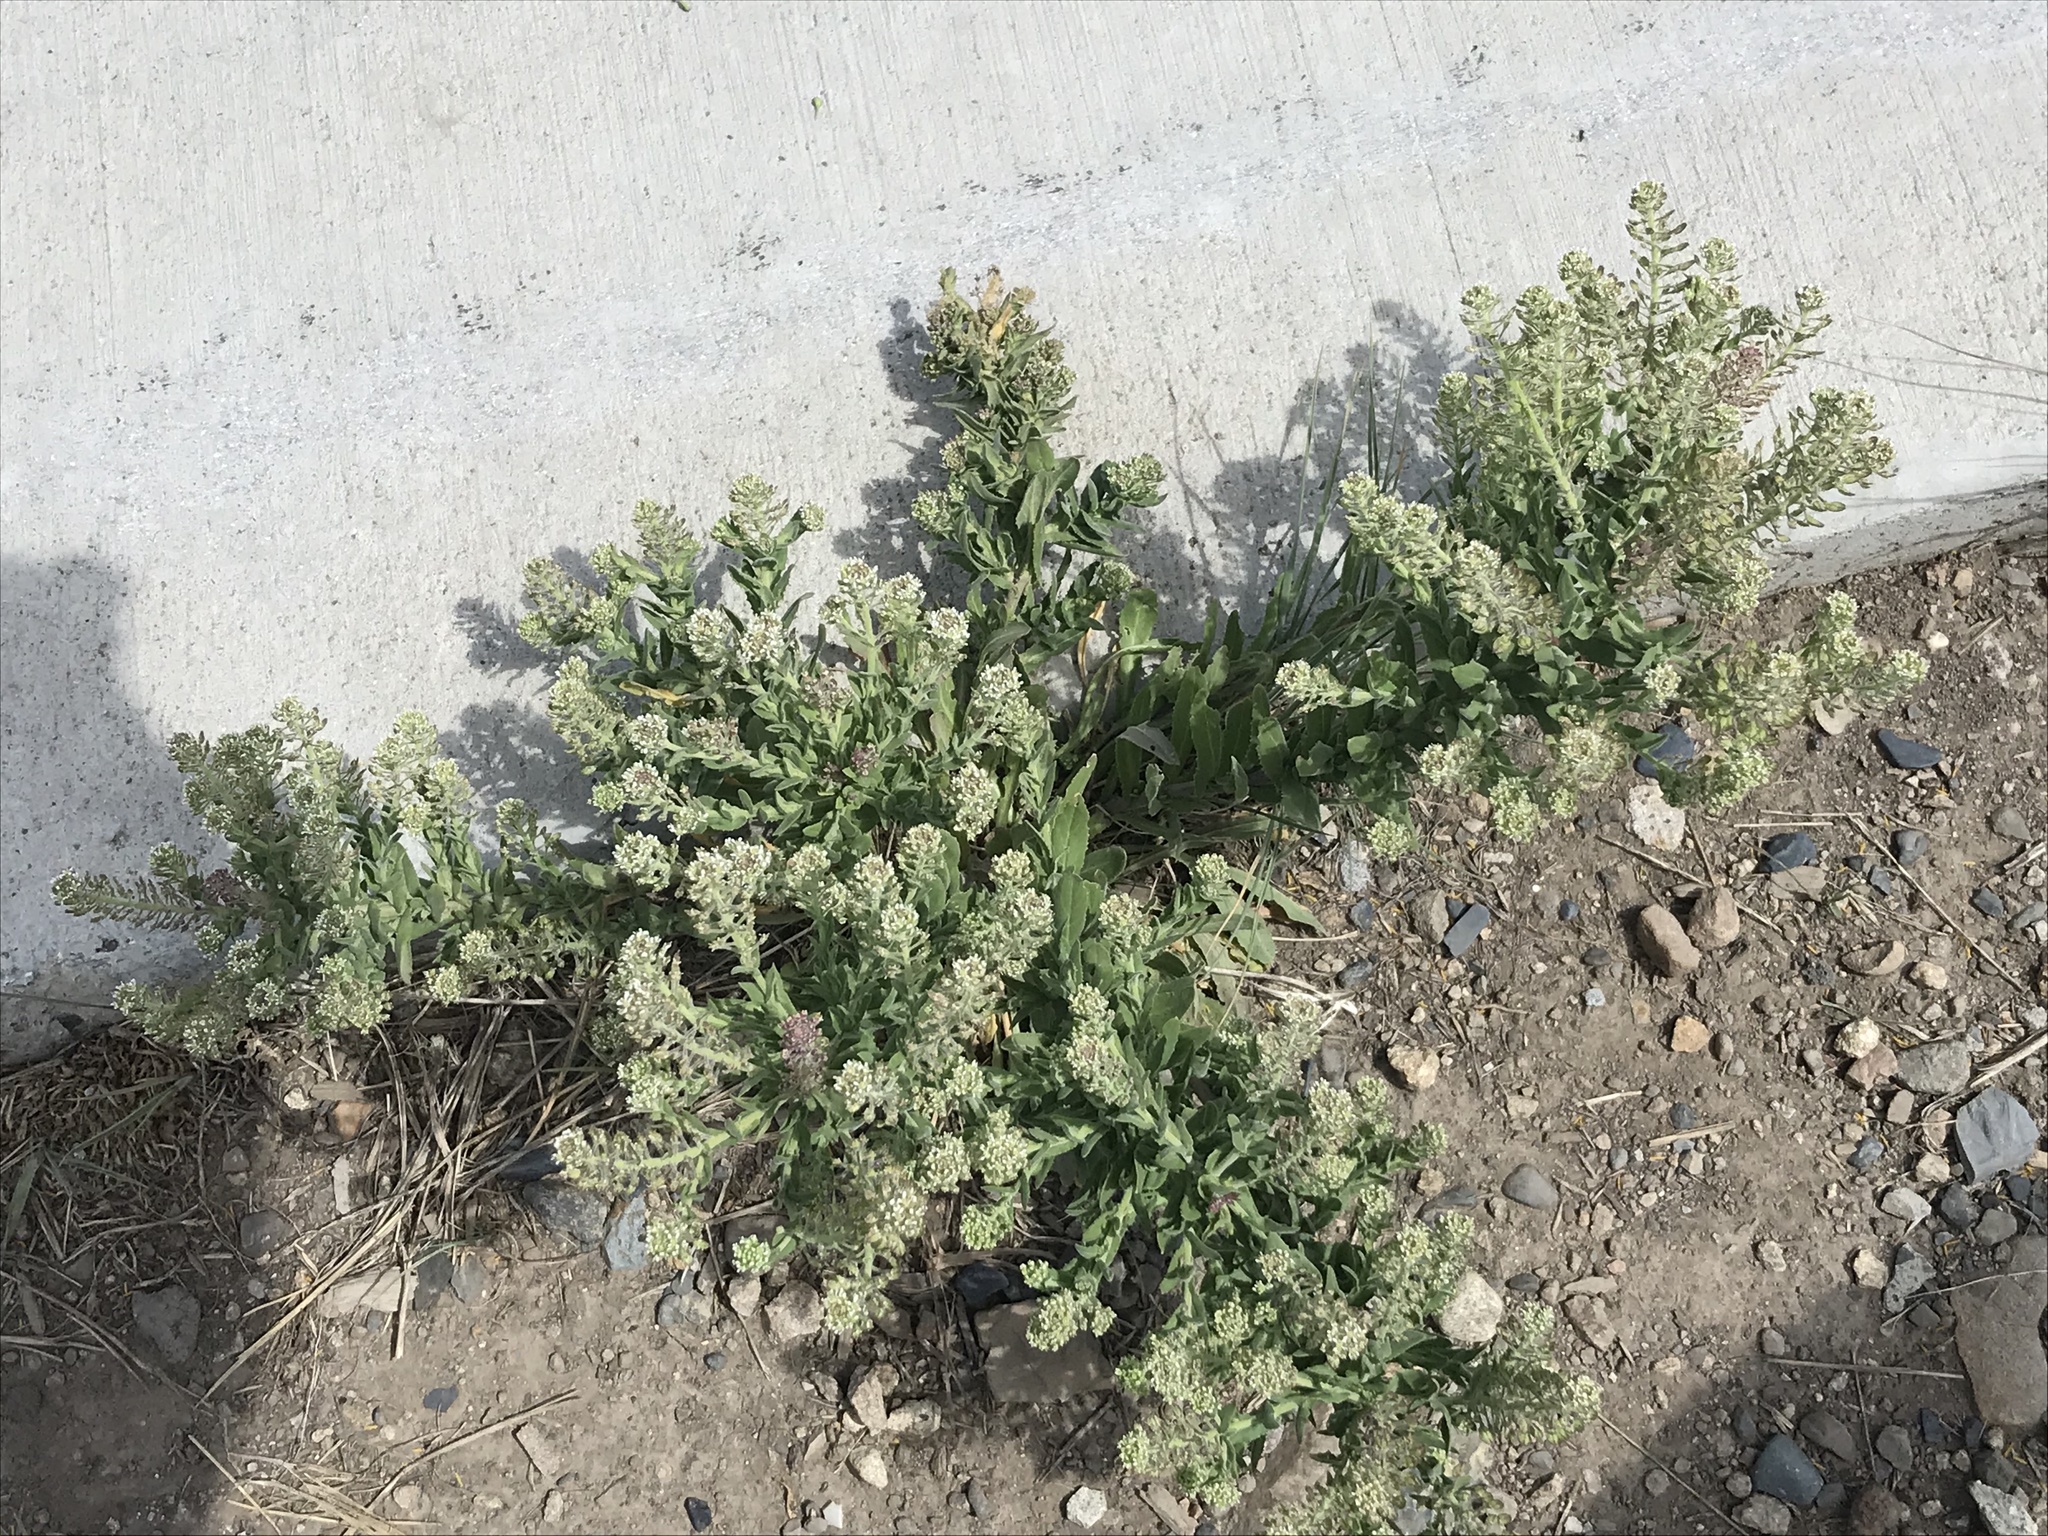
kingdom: Plantae
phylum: Tracheophyta
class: Magnoliopsida
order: Brassicales
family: Brassicaceae
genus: Lepidium
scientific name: Lepidium campestre
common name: Field pepperwort
